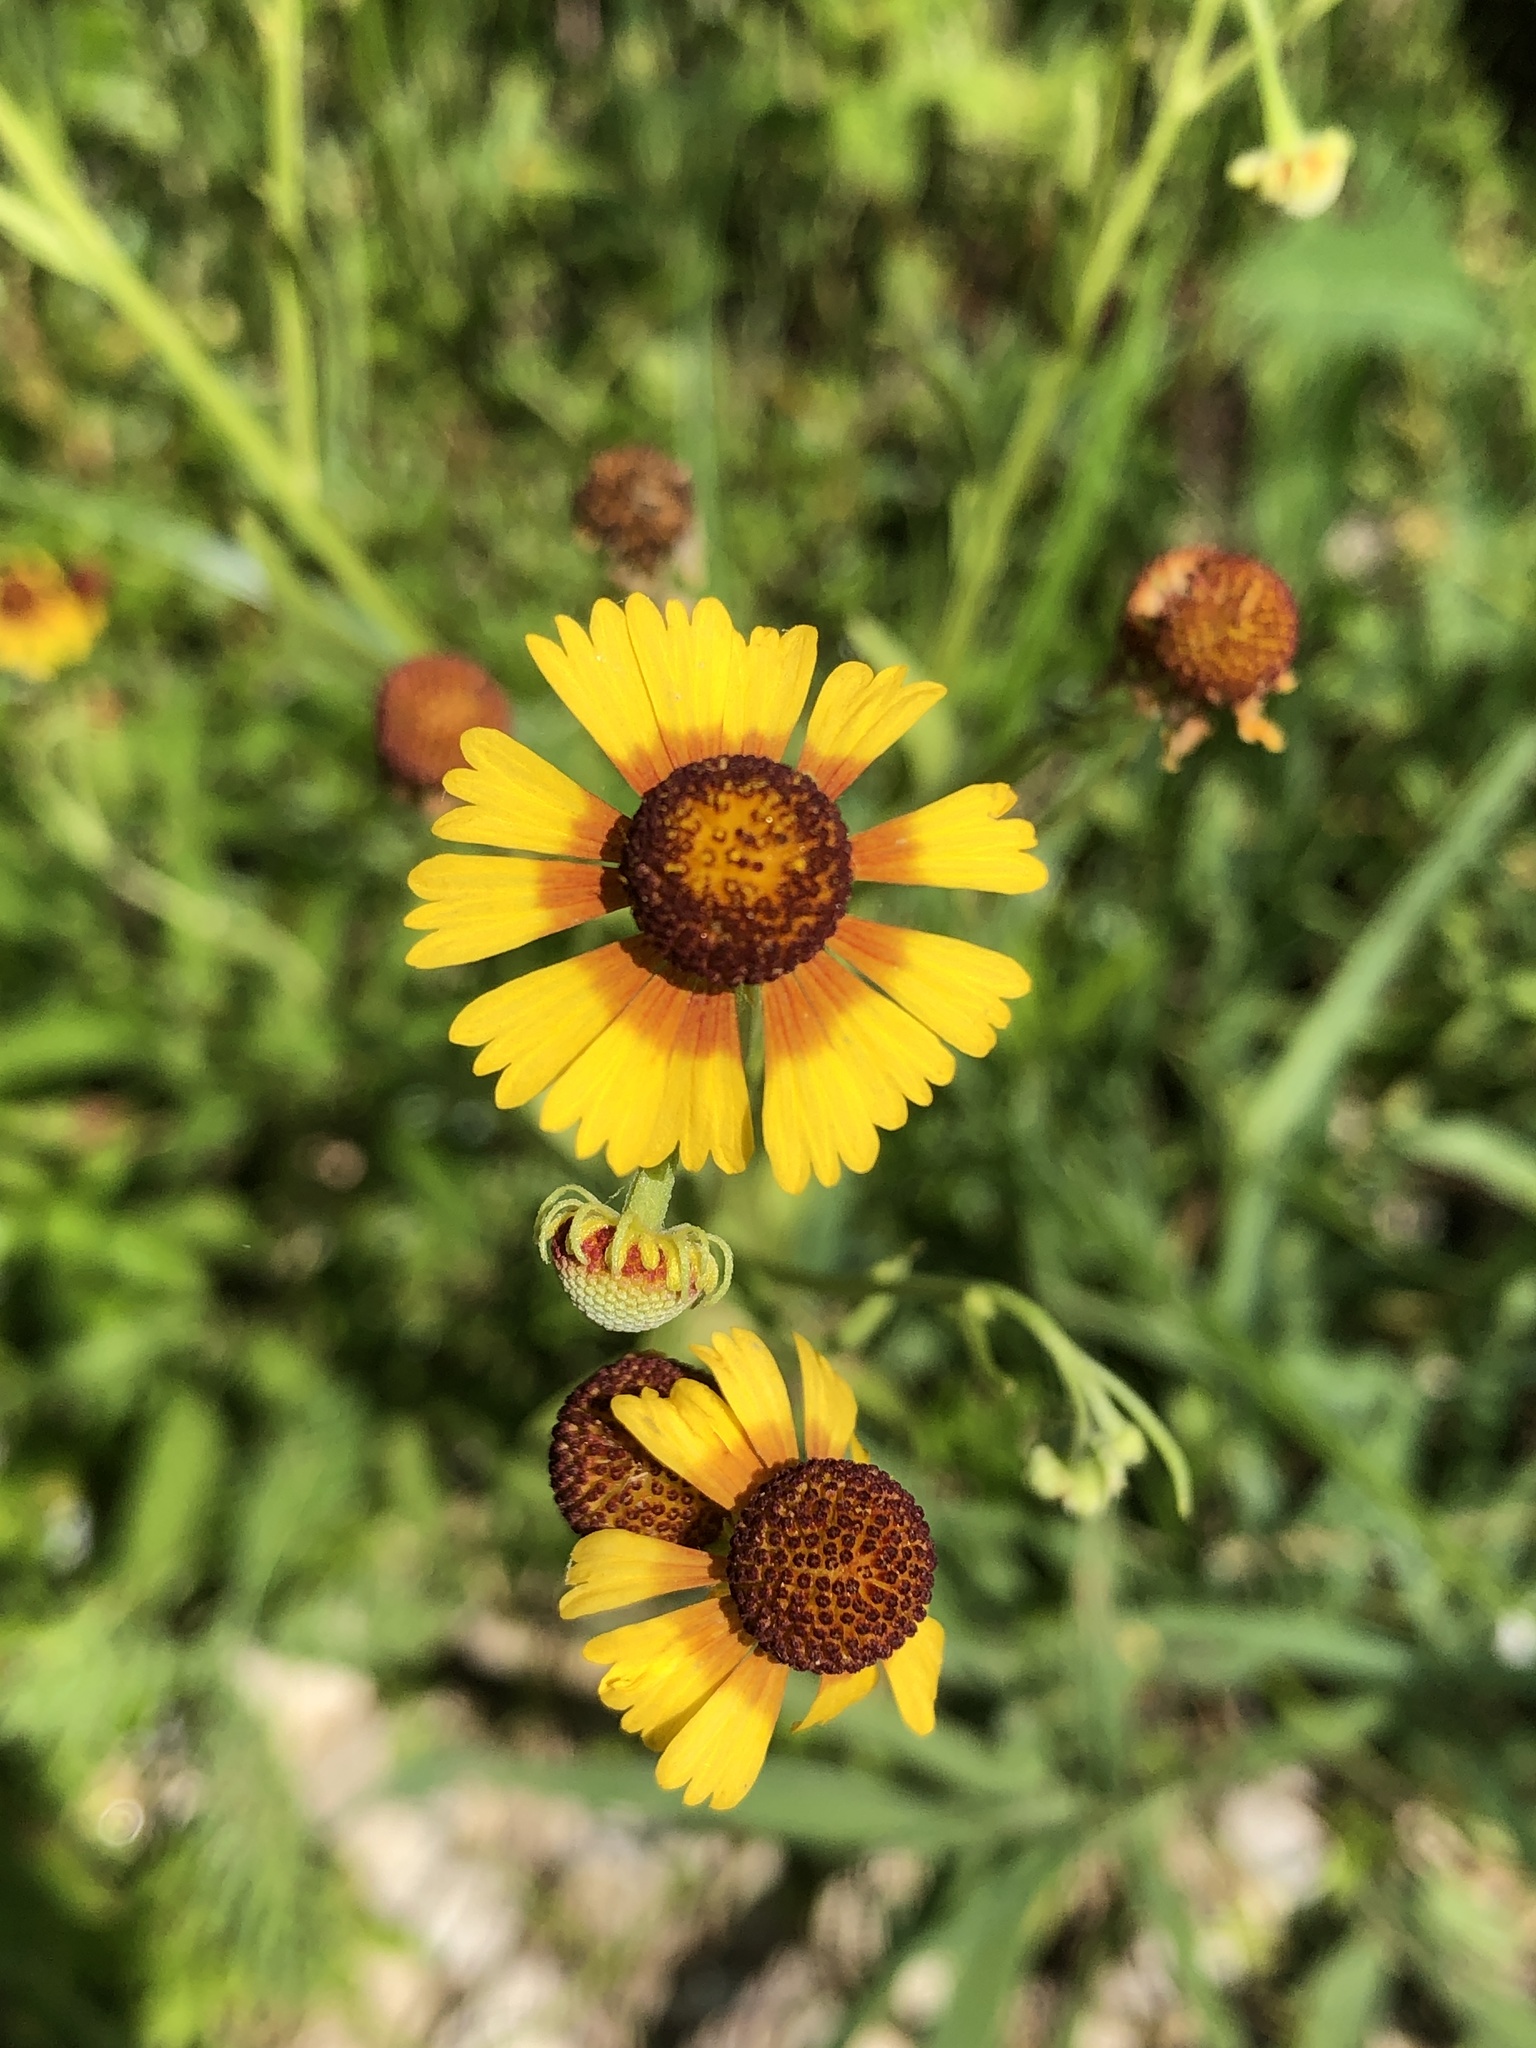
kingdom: Plantae
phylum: Tracheophyta
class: Magnoliopsida
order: Asterales
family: Asteraceae
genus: Helenium
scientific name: Helenium elegans
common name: Pretty sneezeweed
